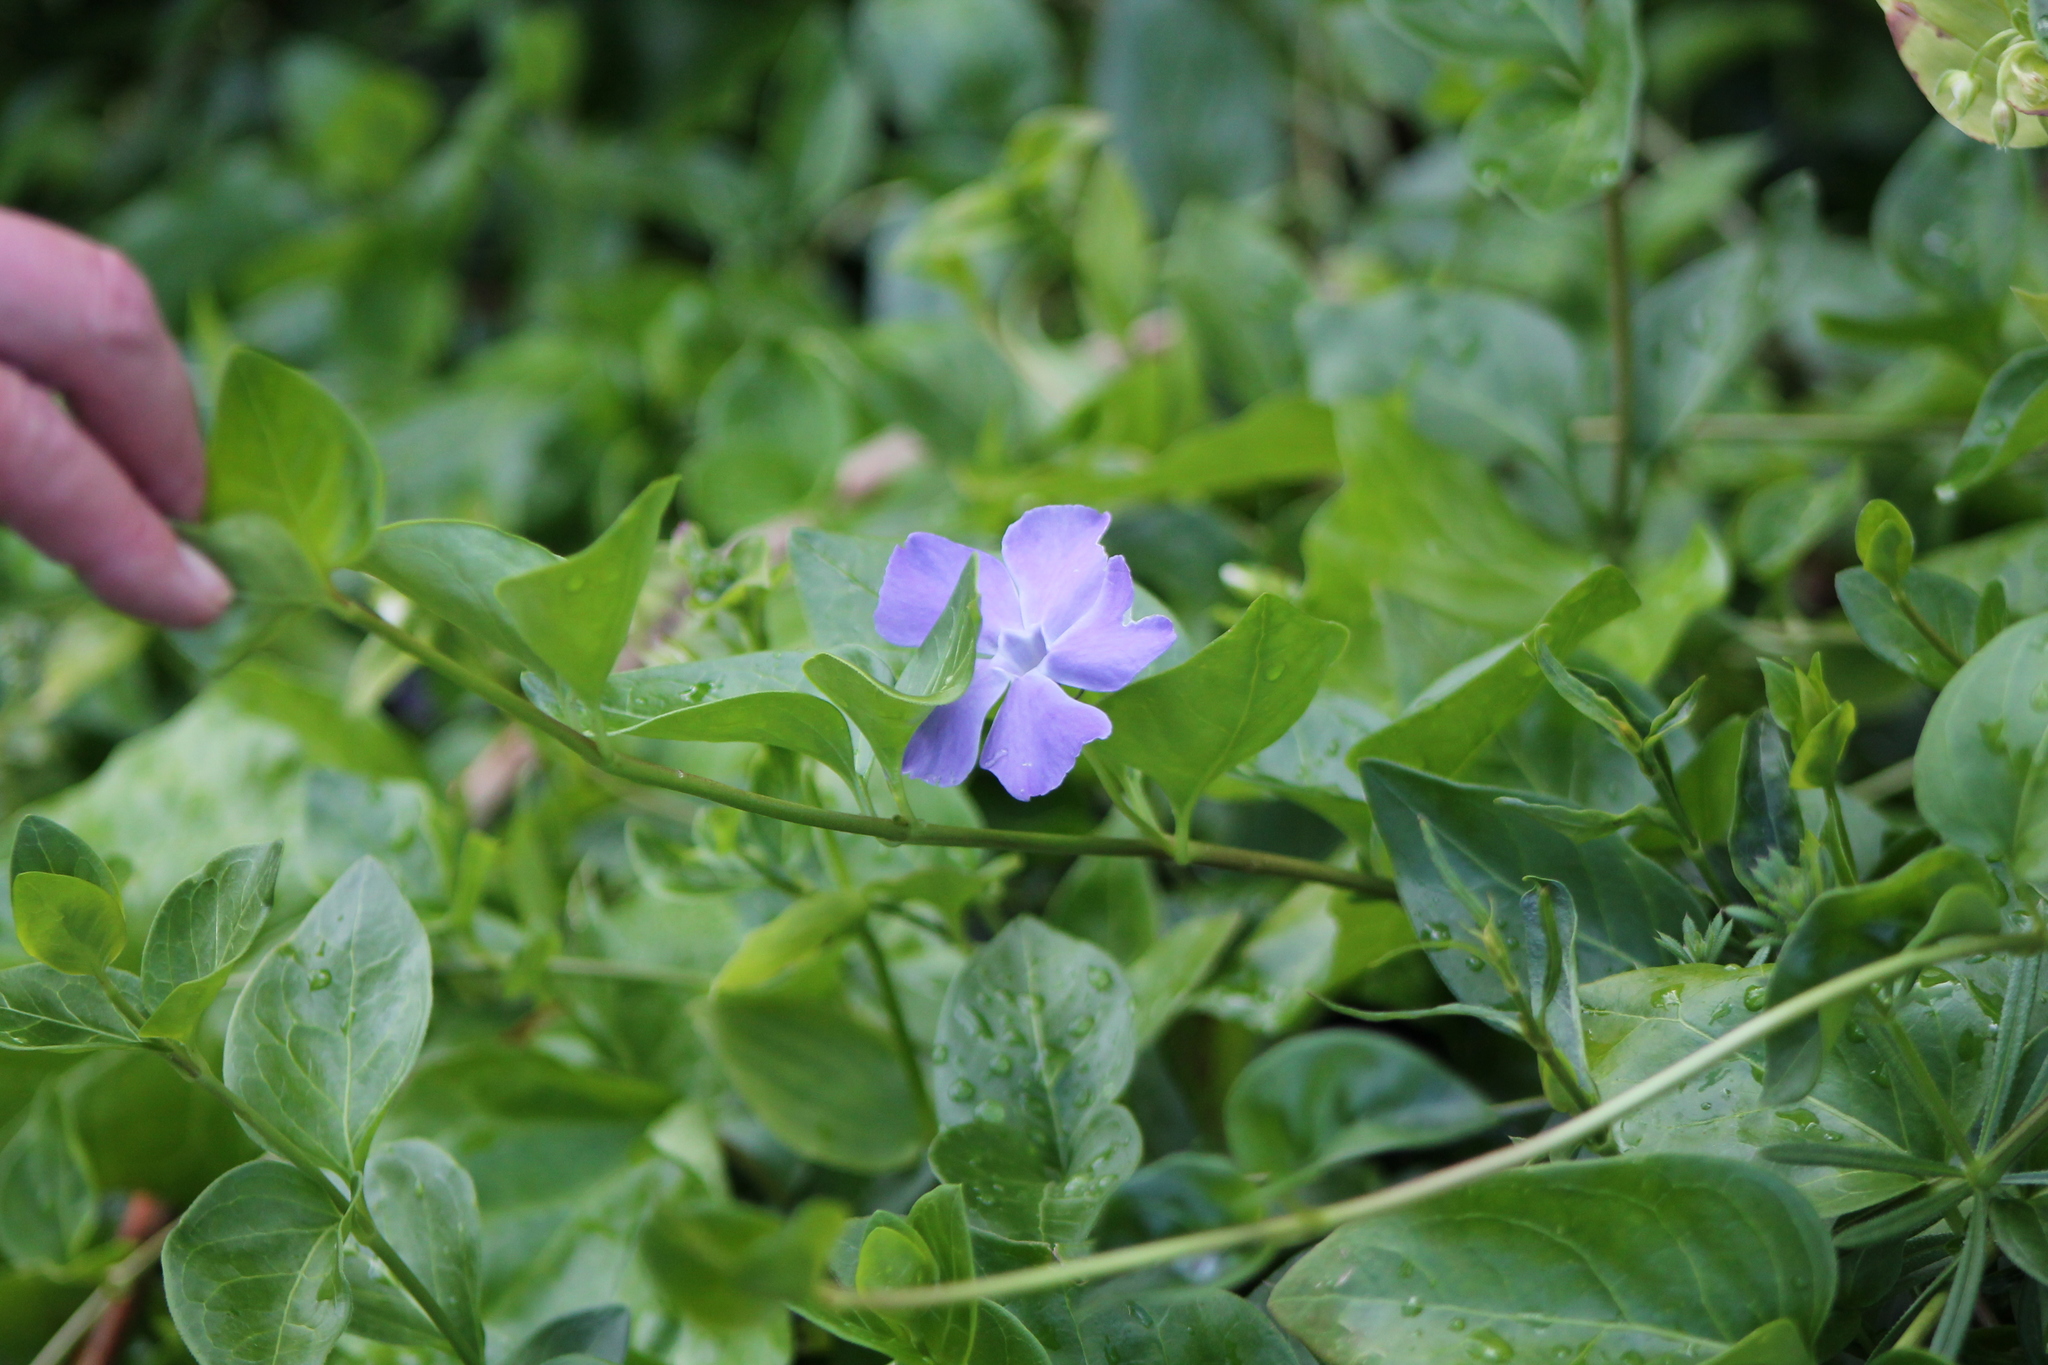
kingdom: Plantae
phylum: Tracheophyta
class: Magnoliopsida
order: Gentianales
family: Apocynaceae
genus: Vinca
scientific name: Vinca major
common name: Greater periwinkle
